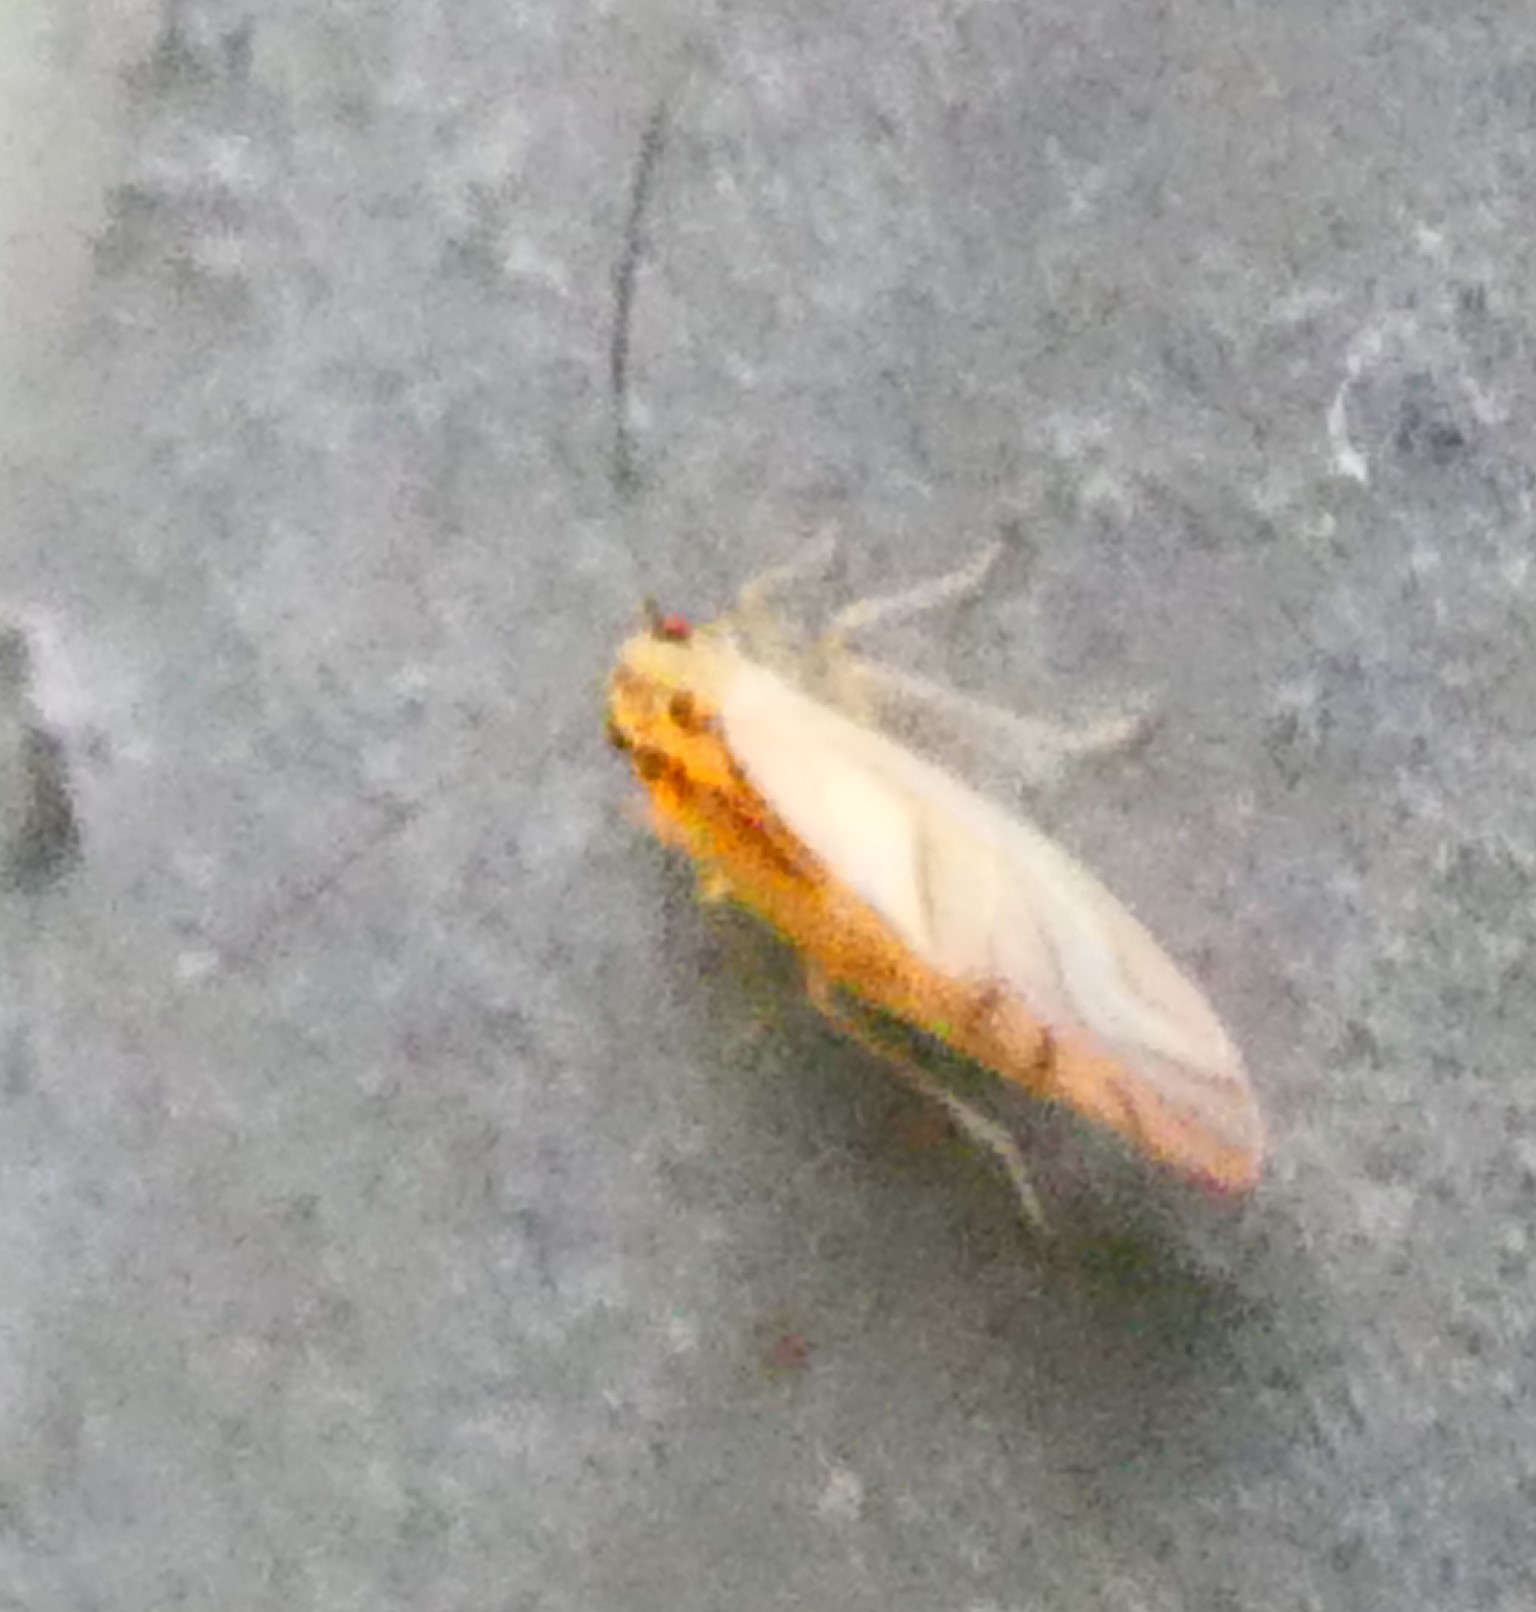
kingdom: Animalia
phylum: Arthropoda
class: Insecta
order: Psocodea
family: Caeciliusidae
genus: Valenzuela
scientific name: Valenzuela flavidus
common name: Yellow barklouse
